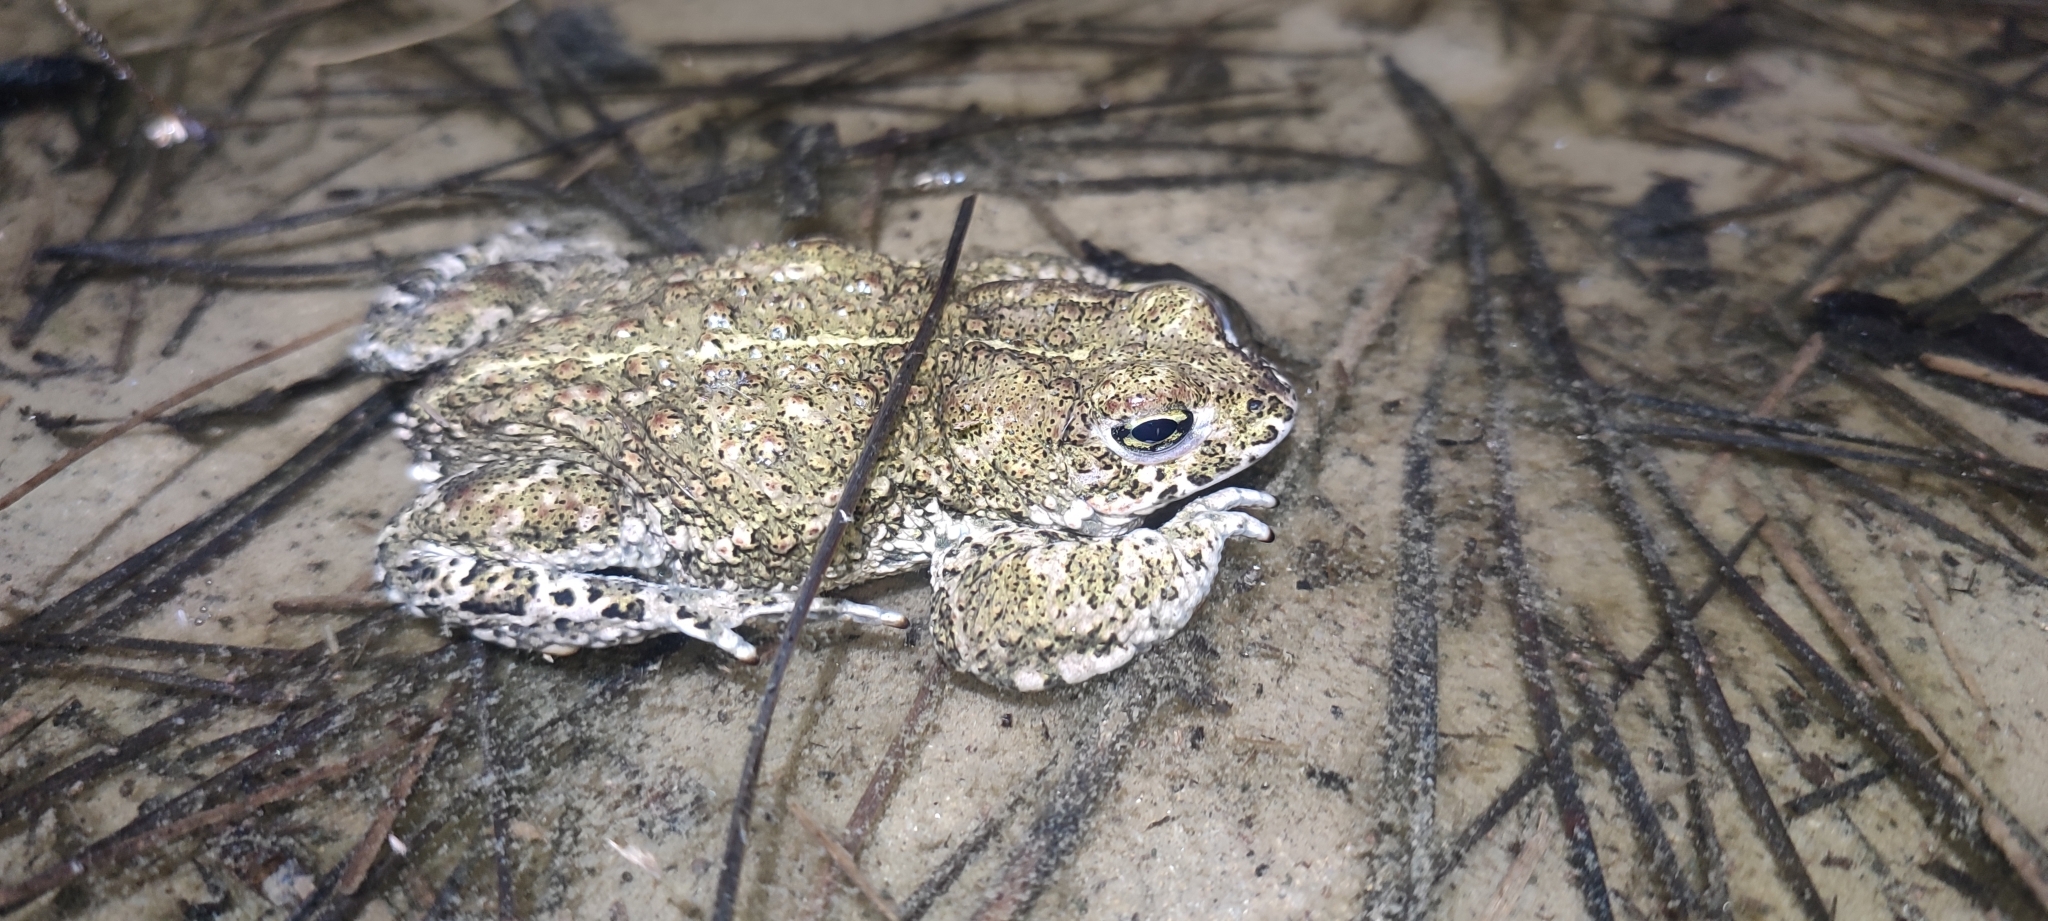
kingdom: Animalia
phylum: Chordata
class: Amphibia
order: Anura
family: Bufonidae
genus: Epidalea
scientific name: Epidalea calamita
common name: Natterjack toad
